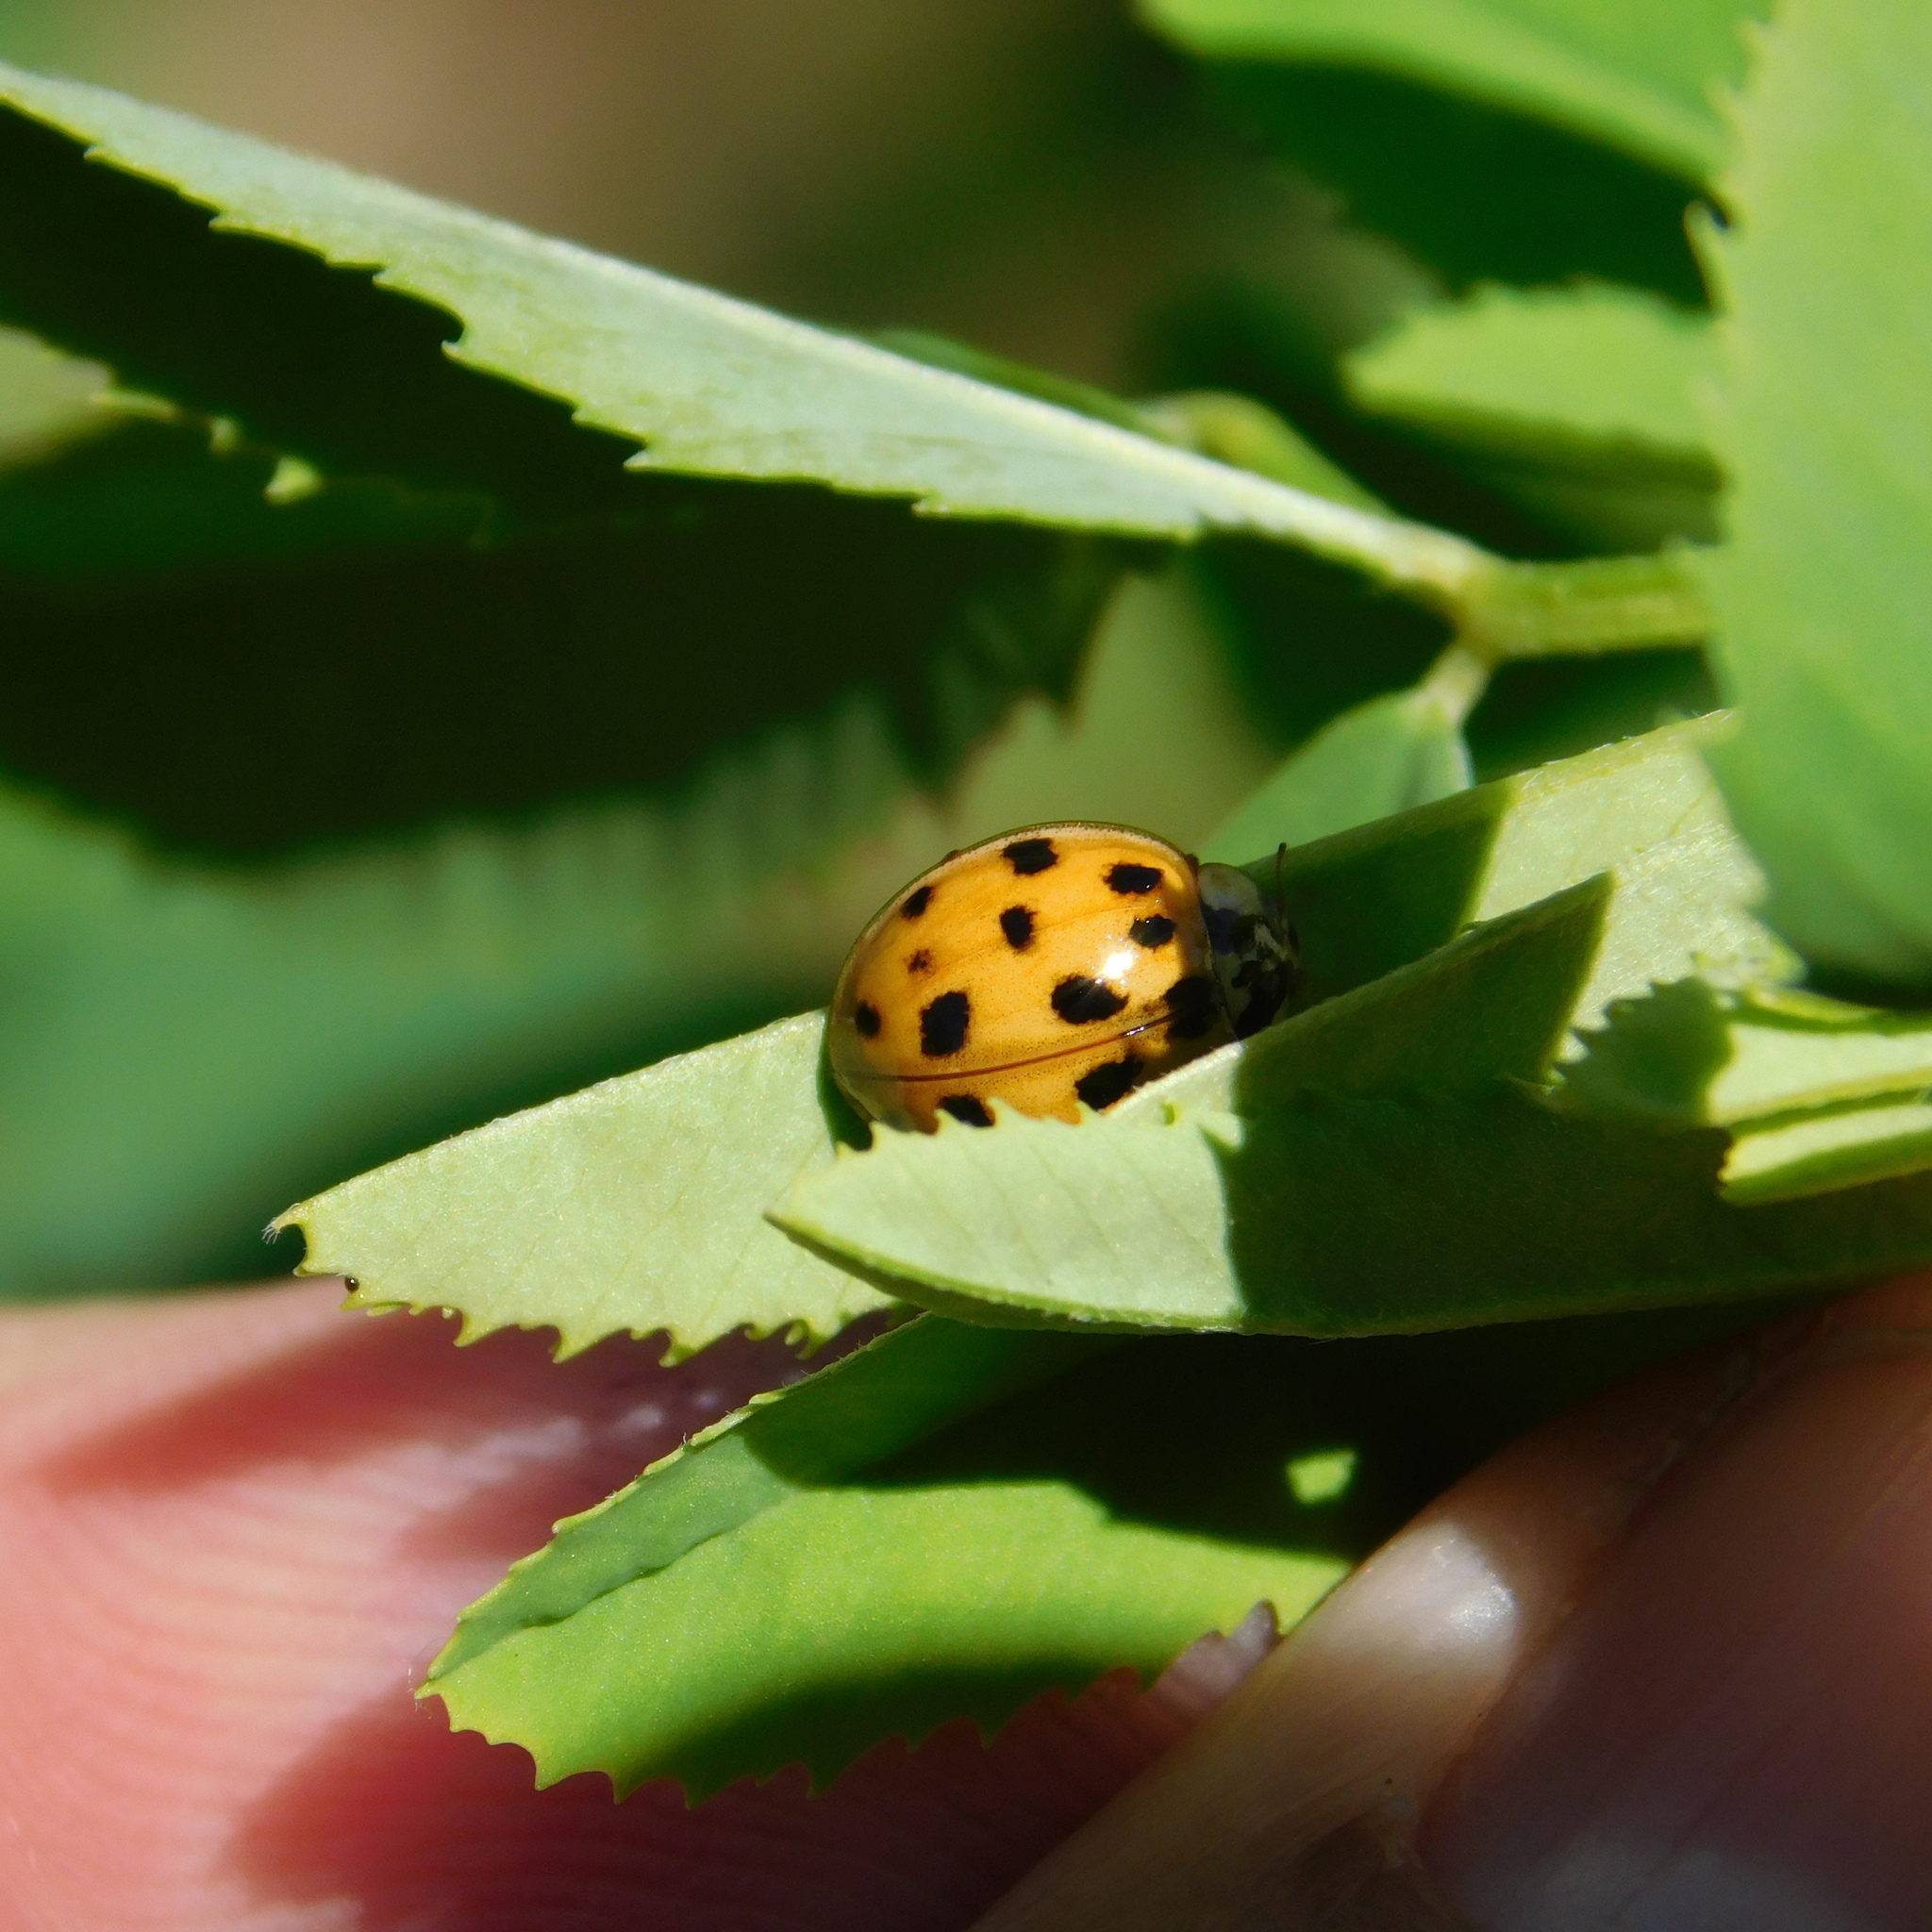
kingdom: Animalia
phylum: Arthropoda
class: Insecta
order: Coleoptera
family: Coccinellidae
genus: Harmonia
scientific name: Harmonia axyridis
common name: Harlequin ladybird
